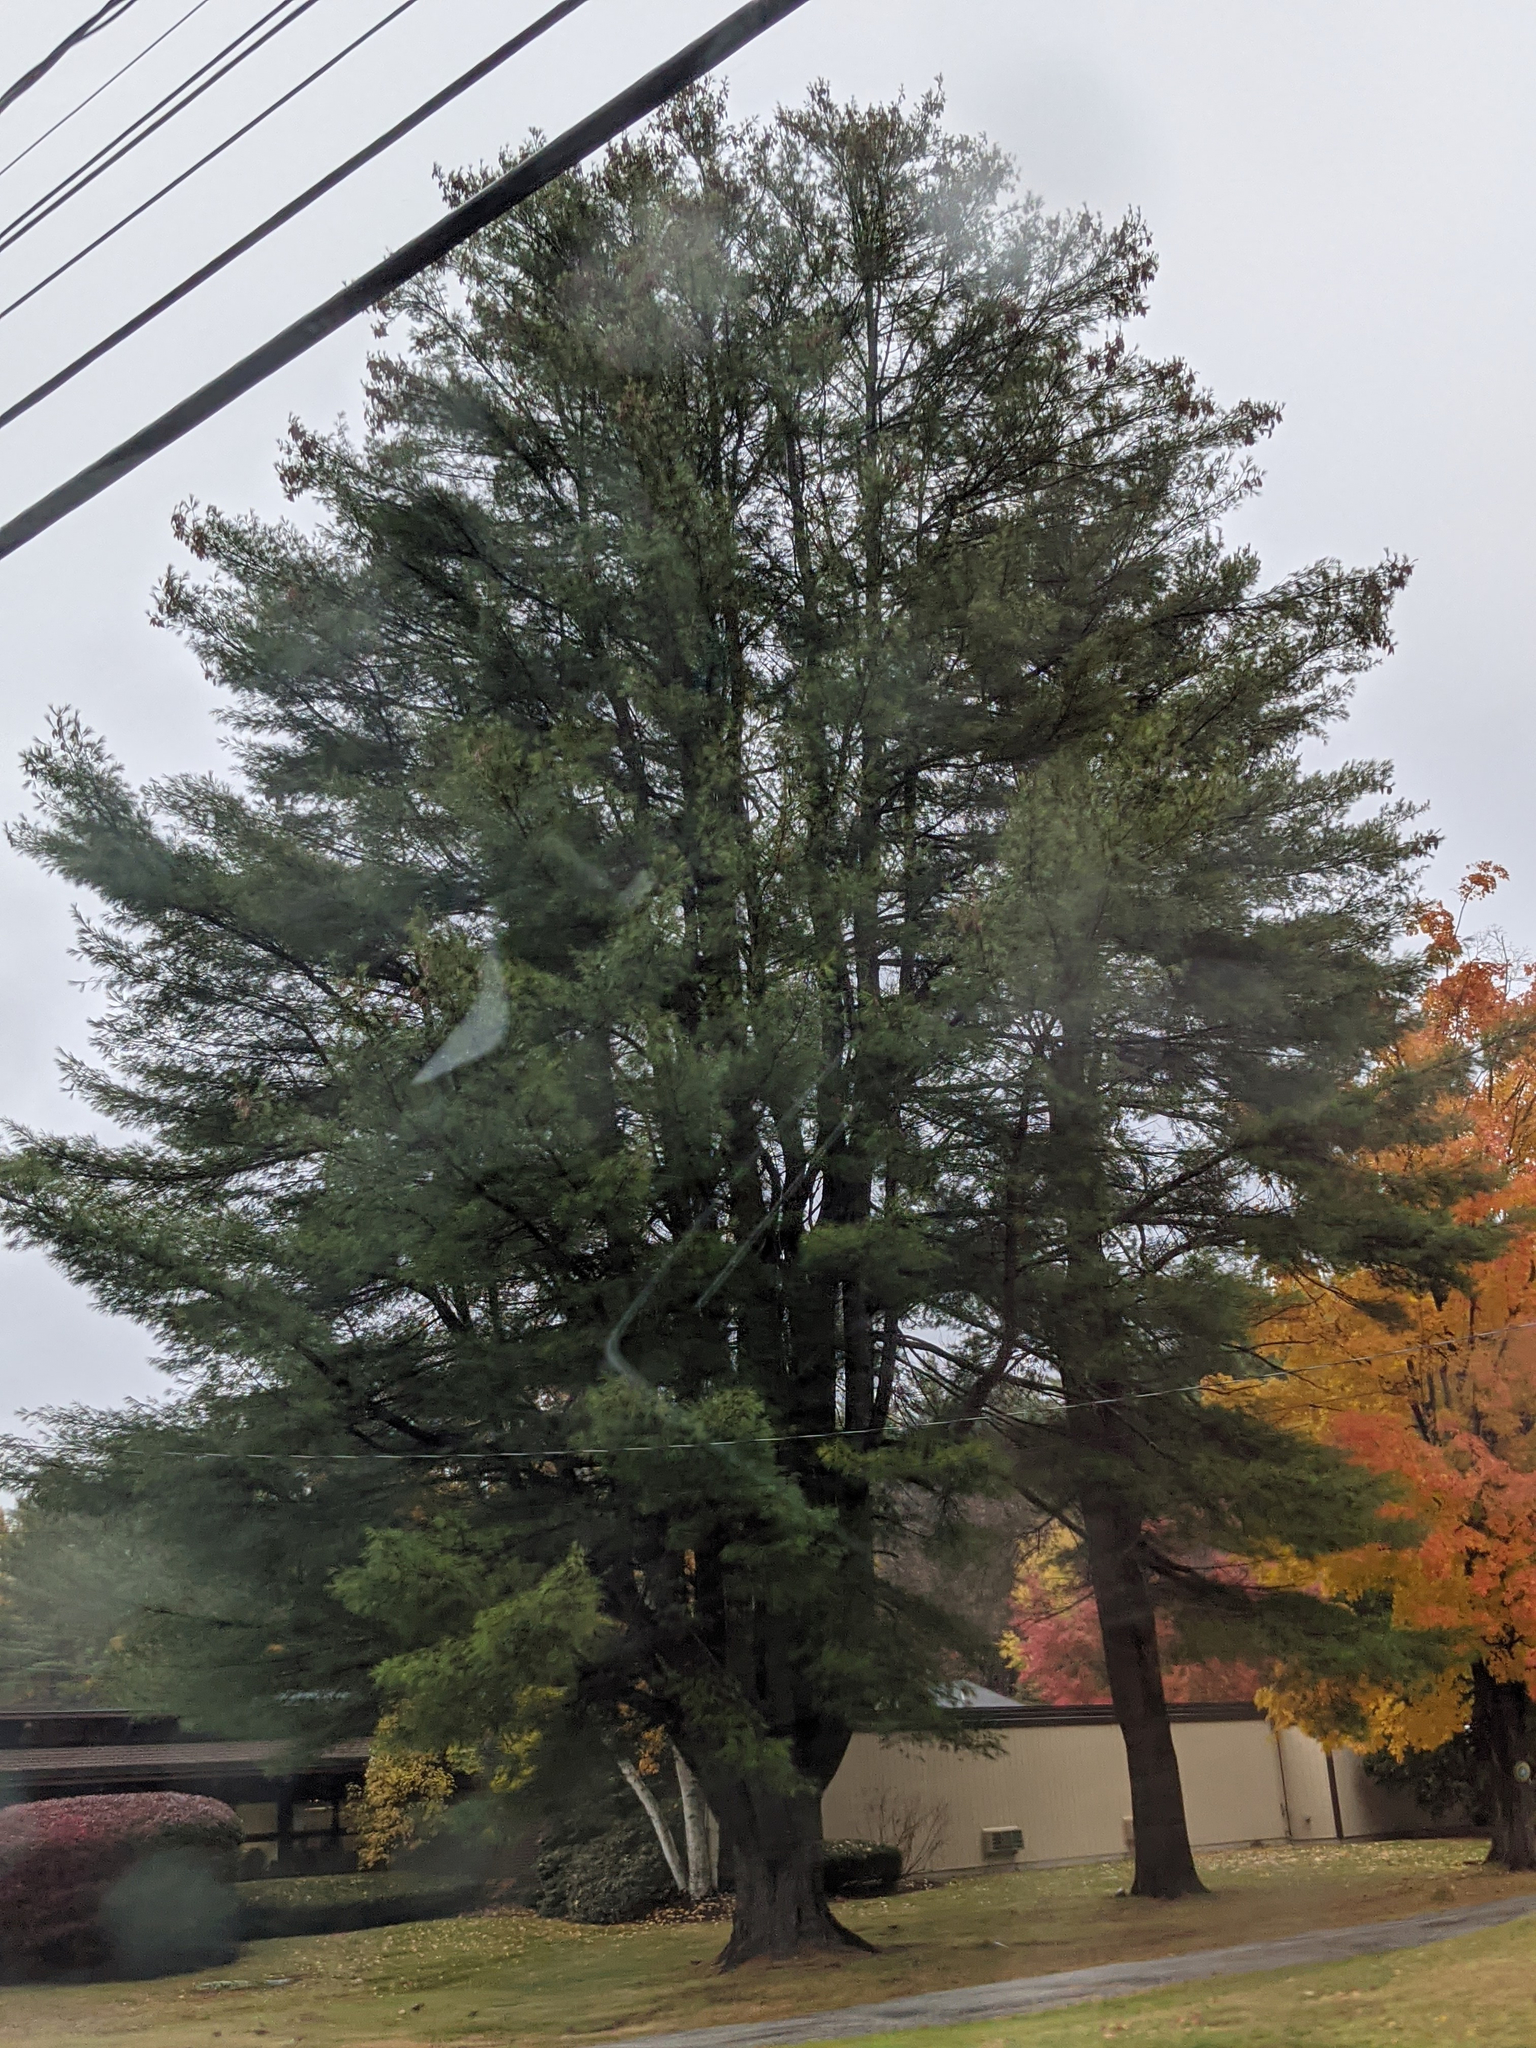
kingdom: Plantae
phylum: Tracheophyta
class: Pinopsida
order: Pinales
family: Pinaceae
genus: Pinus
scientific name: Pinus strobus
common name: Weymouth pine
